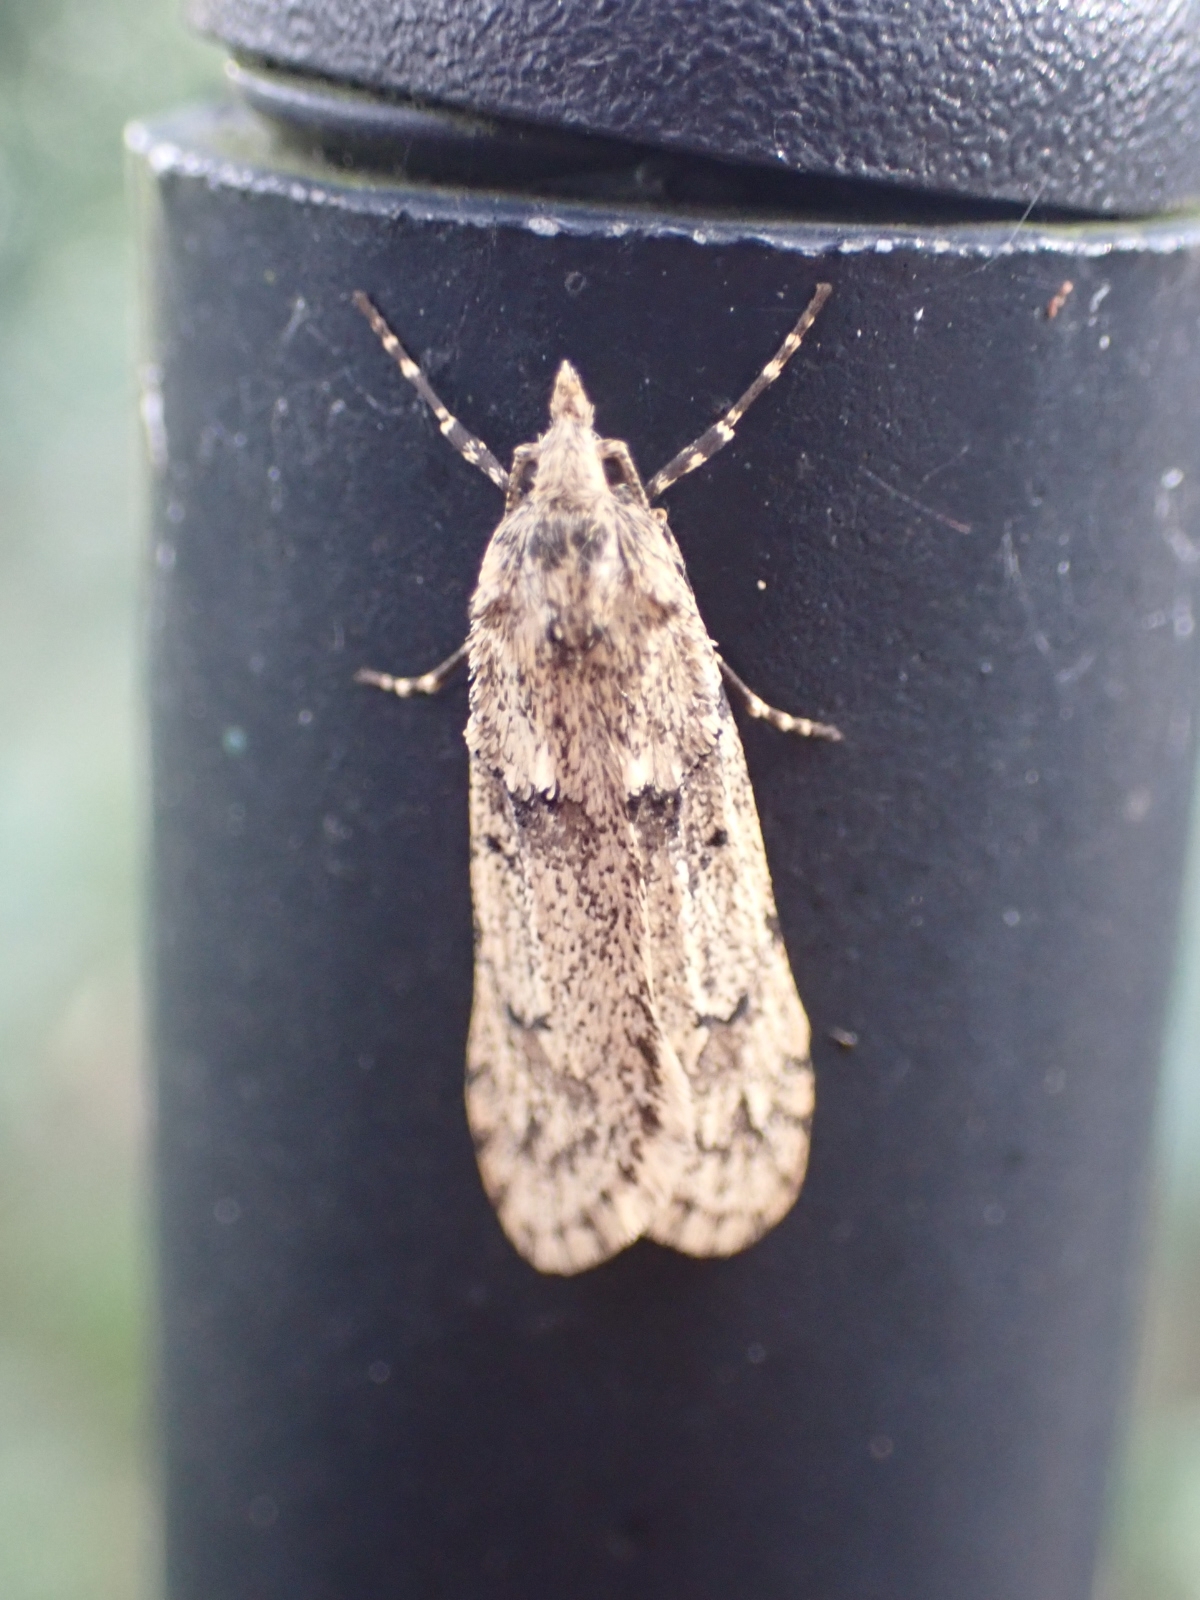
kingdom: Animalia
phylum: Arthropoda
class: Insecta
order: Lepidoptera
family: Lypusidae
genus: Diurnea
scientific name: Diurnea fagella
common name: March tubic
